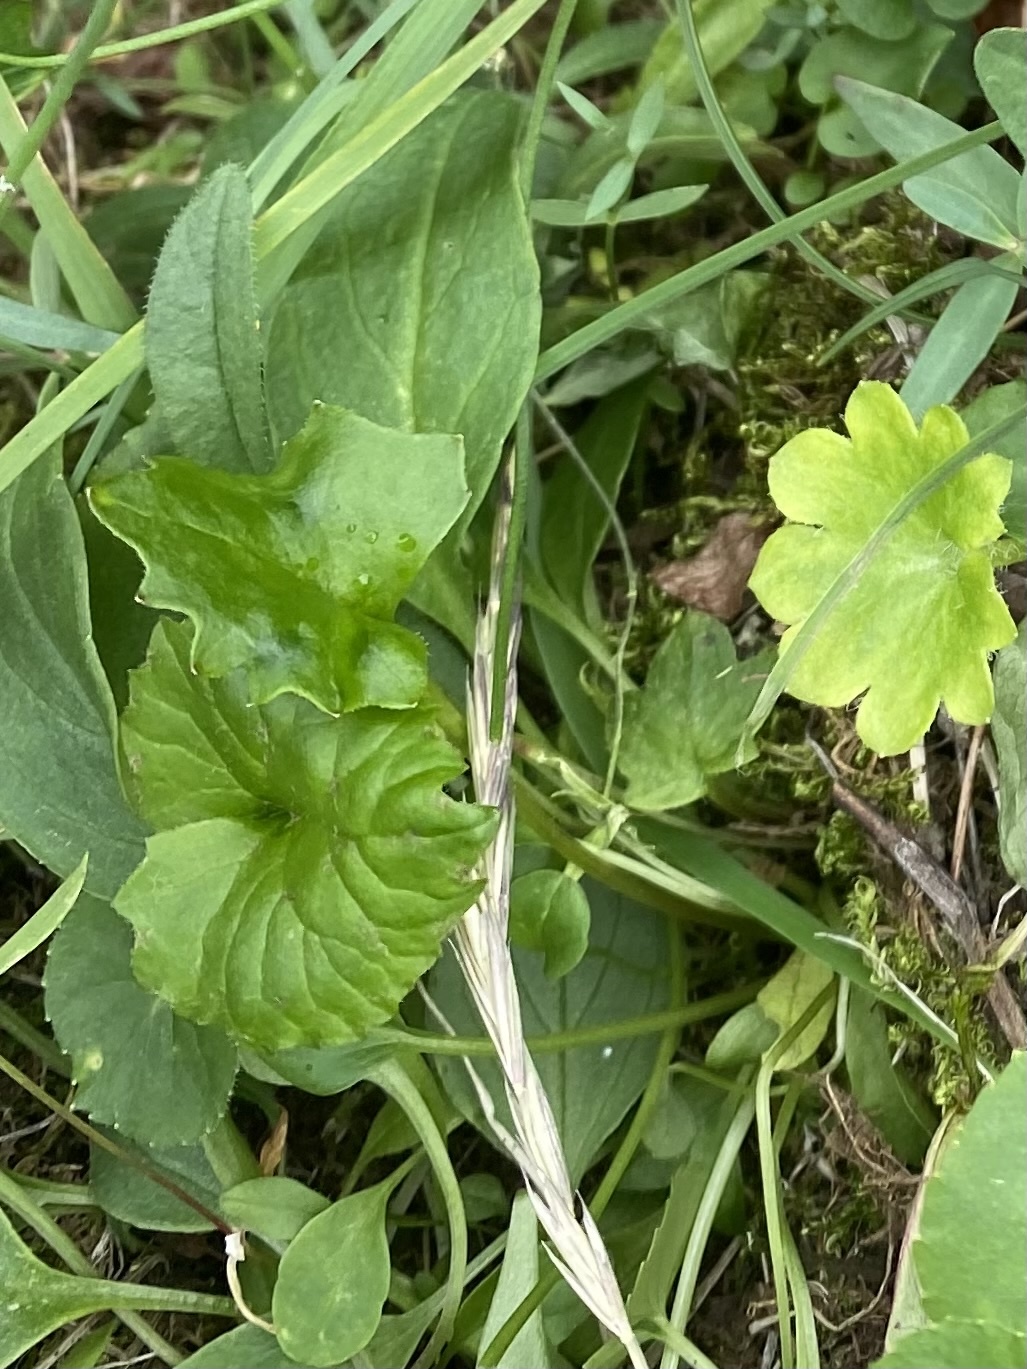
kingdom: Plantae
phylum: Tracheophyta
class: Magnoliopsida
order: Asterales
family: Asteraceae
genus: Endocellion
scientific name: Endocellion glaciale
